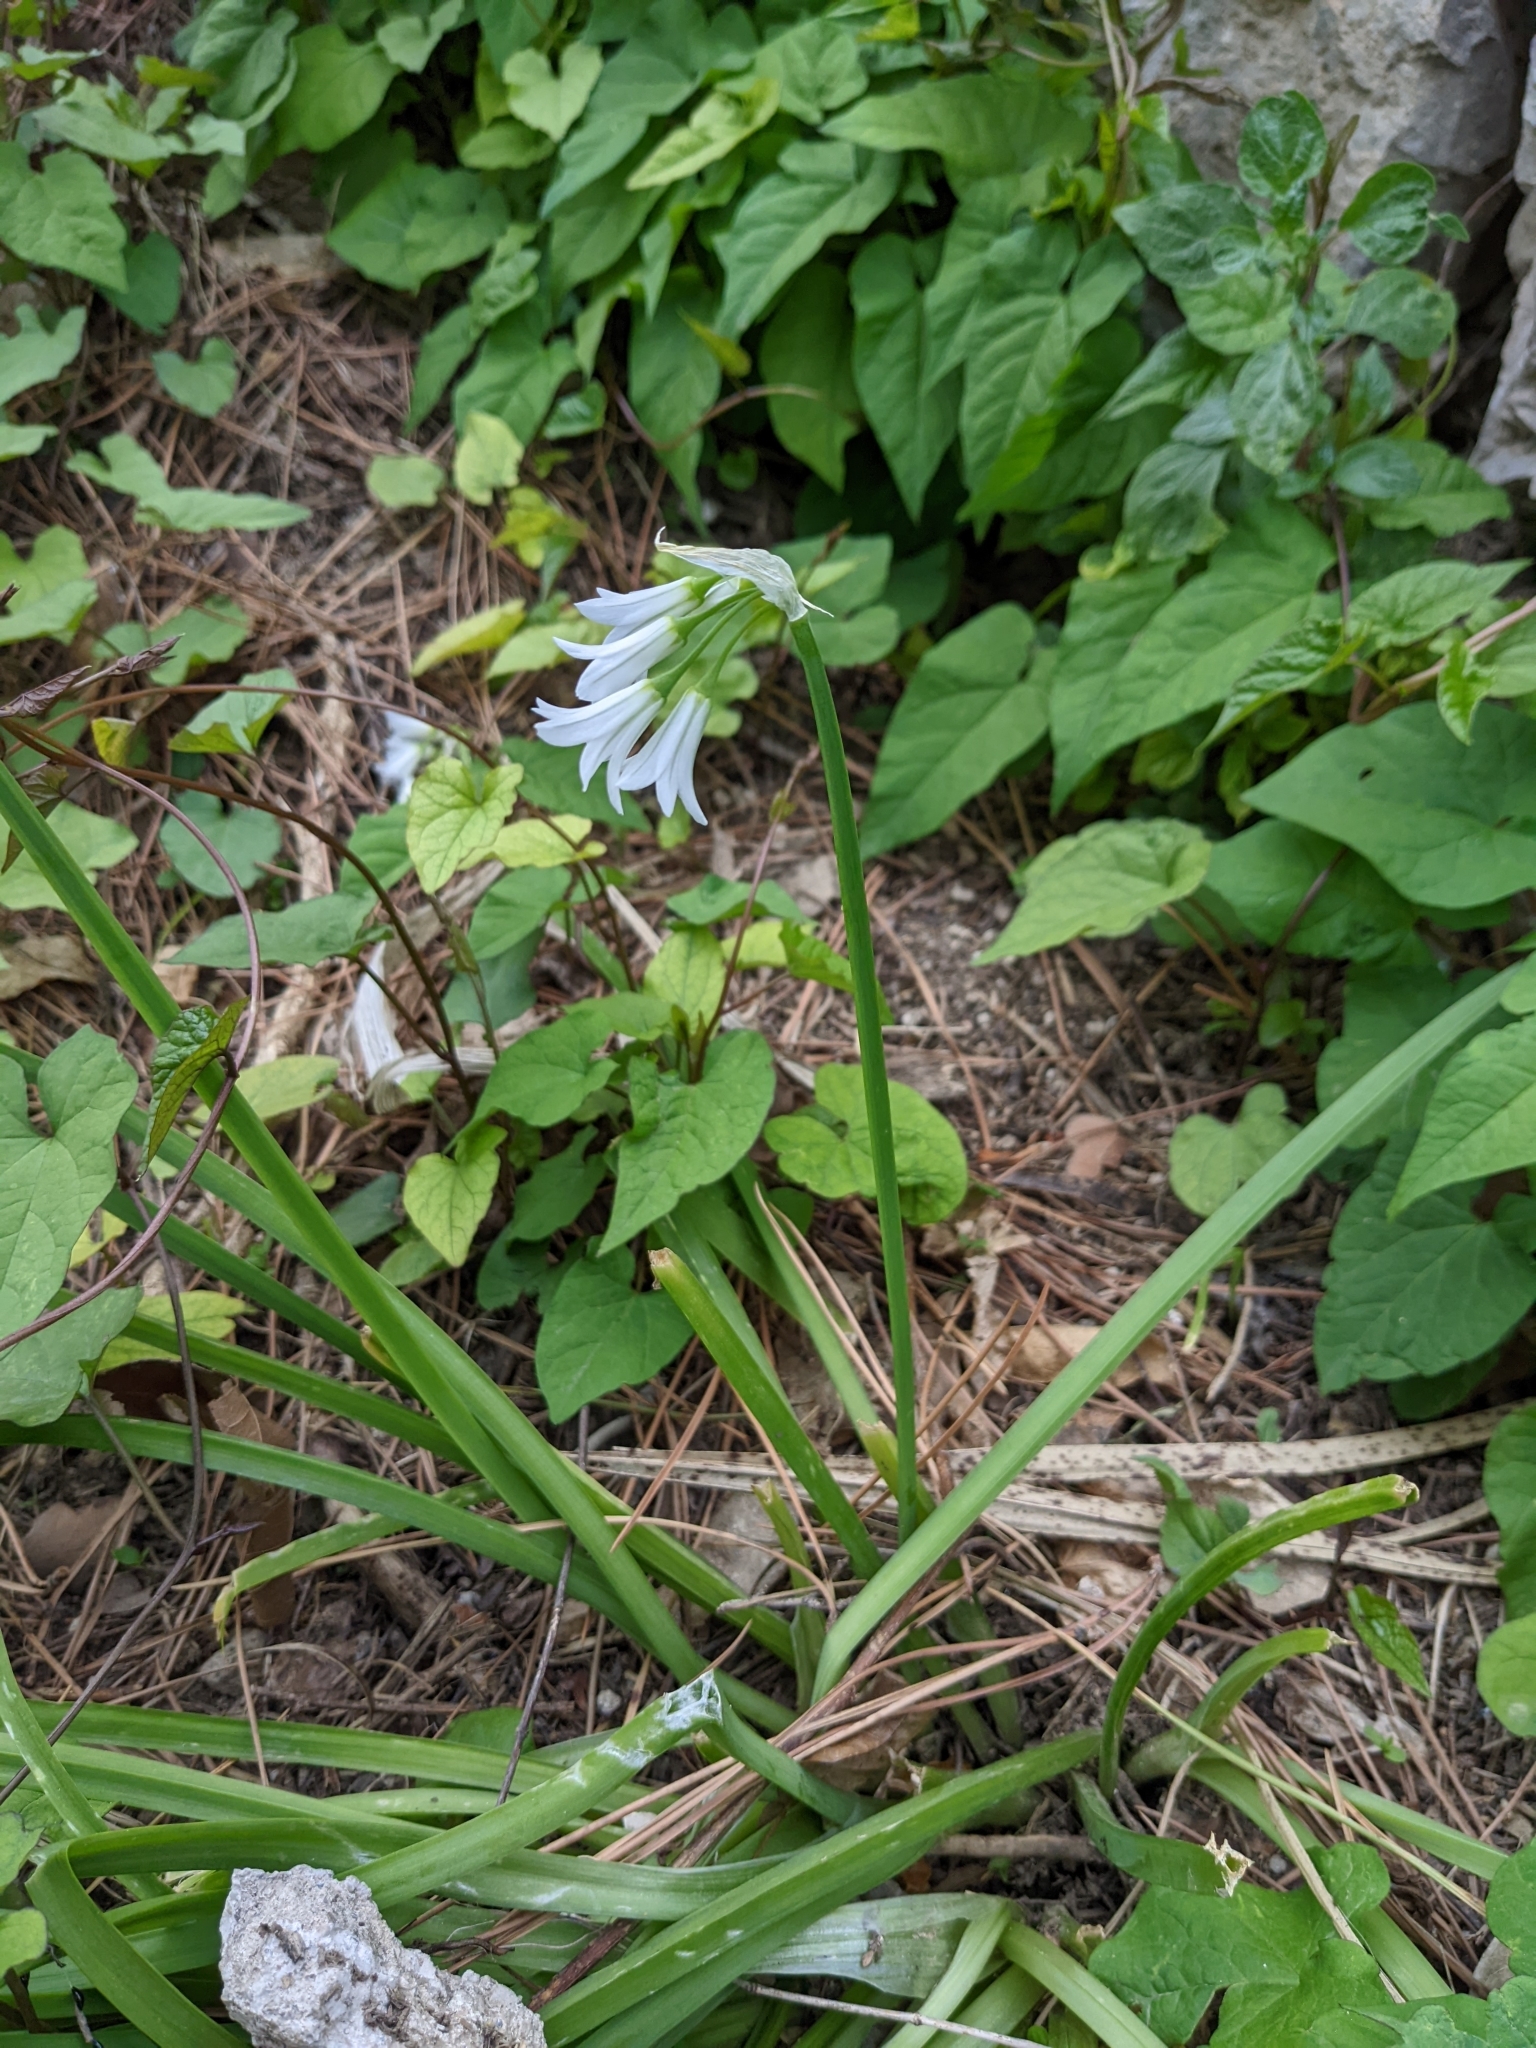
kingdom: Plantae
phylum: Tracheophyta
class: Liliopsida
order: Asparagales
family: Amaryllidaceae
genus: Allium
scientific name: Allium triquetrum
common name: Three-cornered garlic
